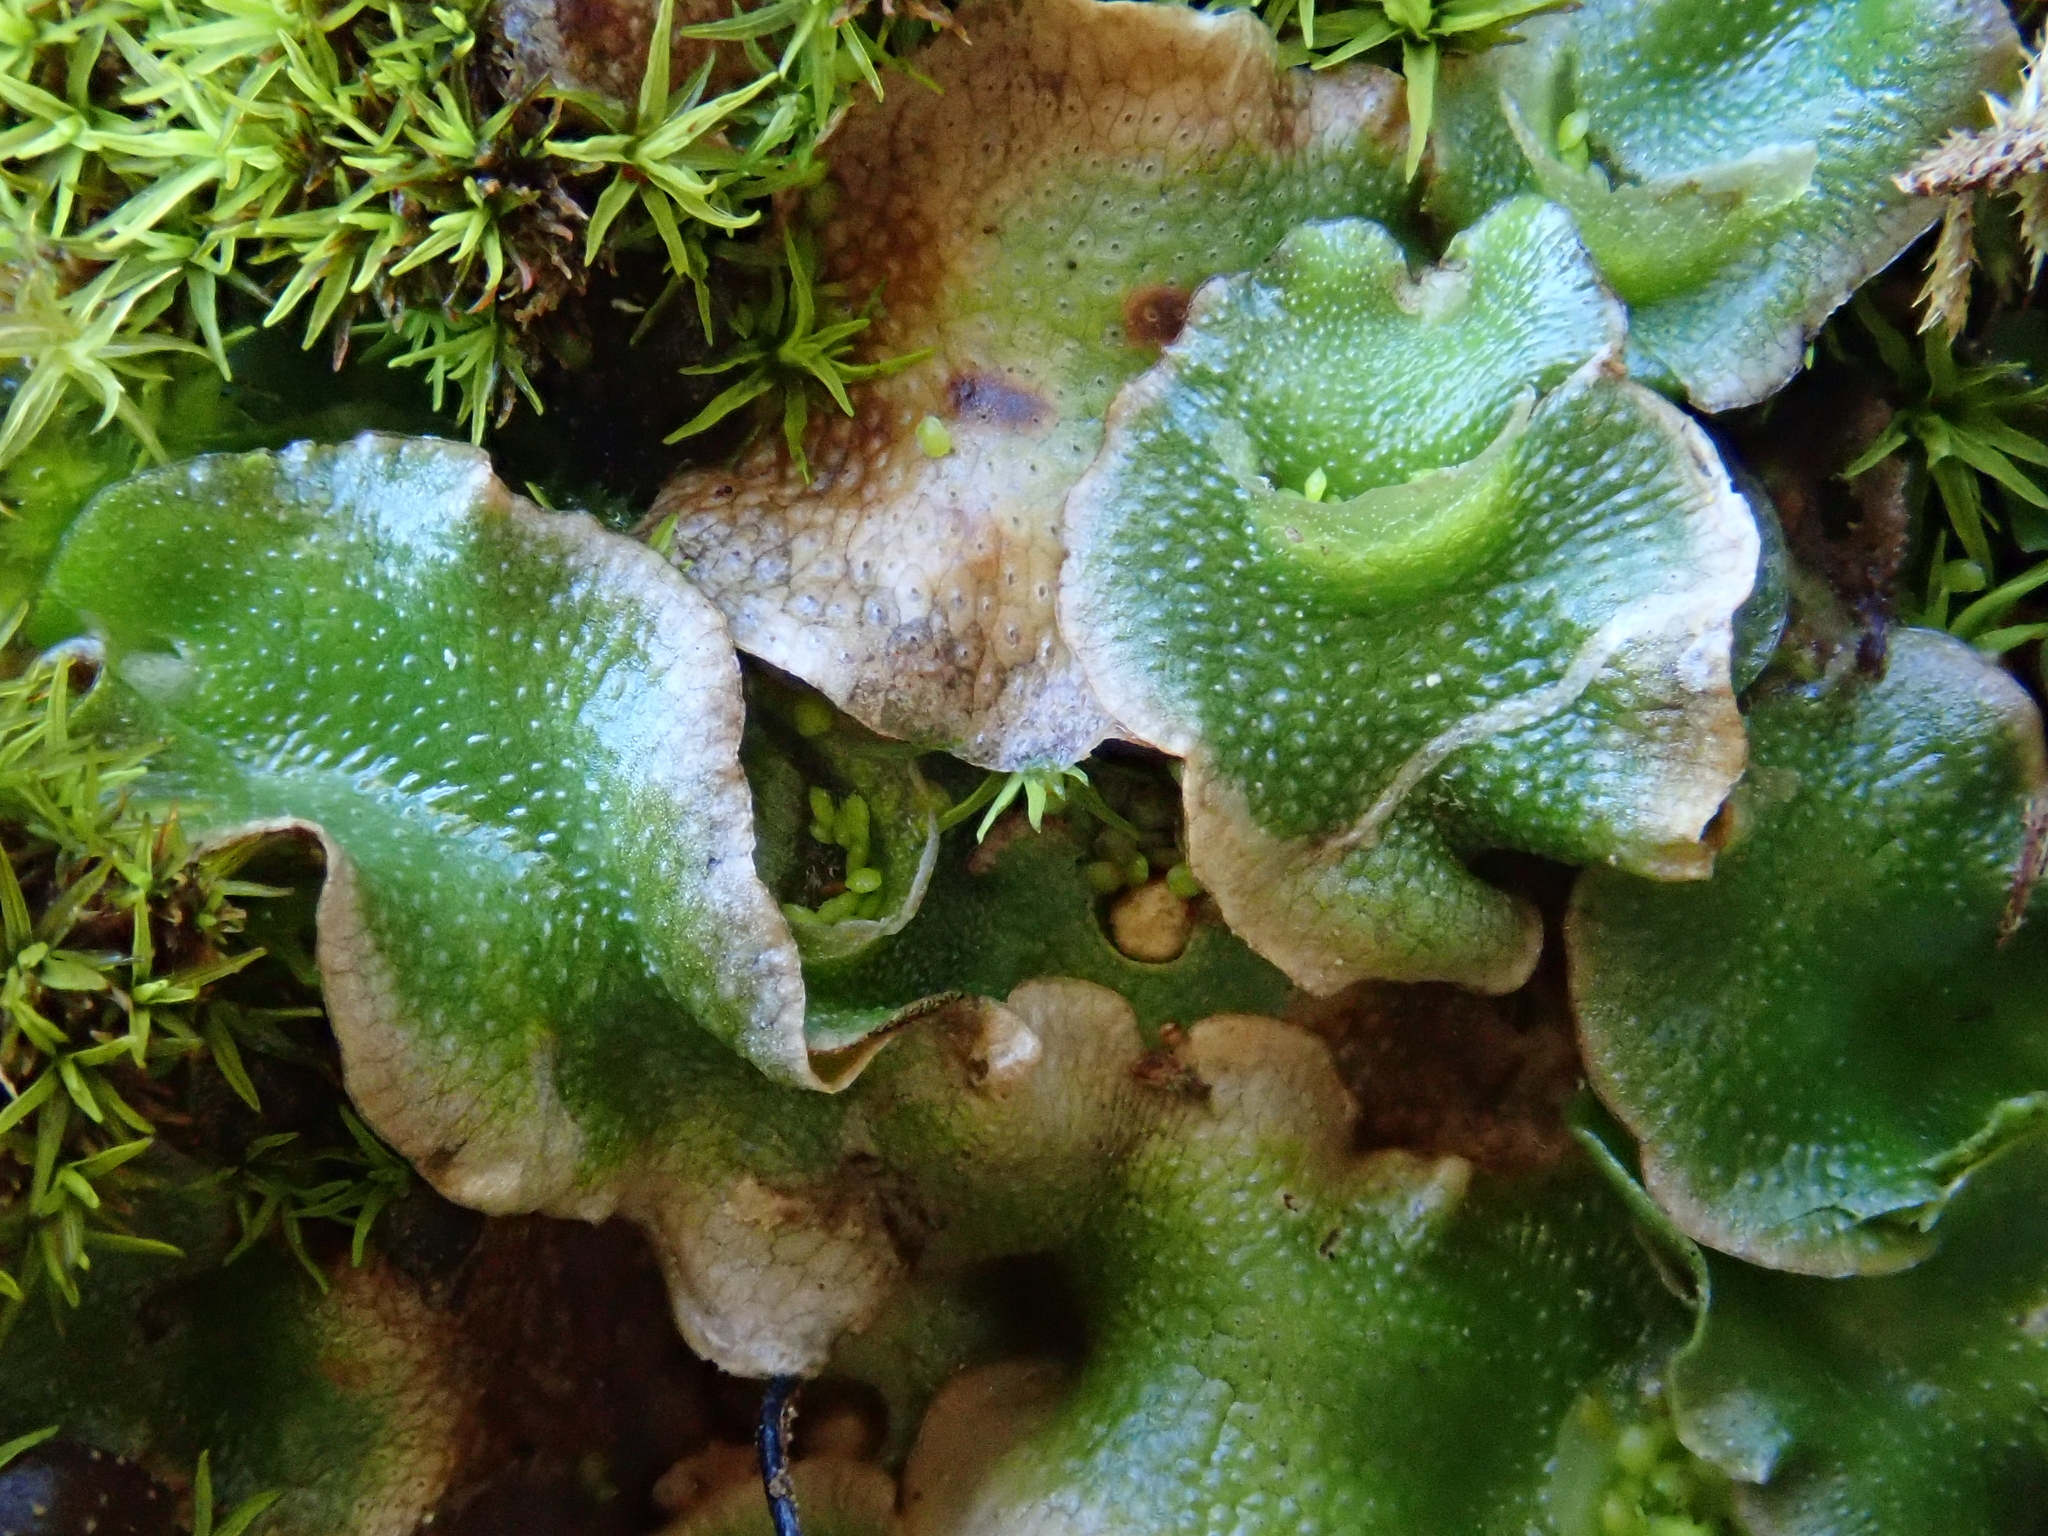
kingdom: Plantae
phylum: Marchantiophyta
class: Marchantiopsida
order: Lunulariales
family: Lunulariaceae
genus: Lunularia
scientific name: Lunularia cruciata
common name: Crescent-cup liverwort
